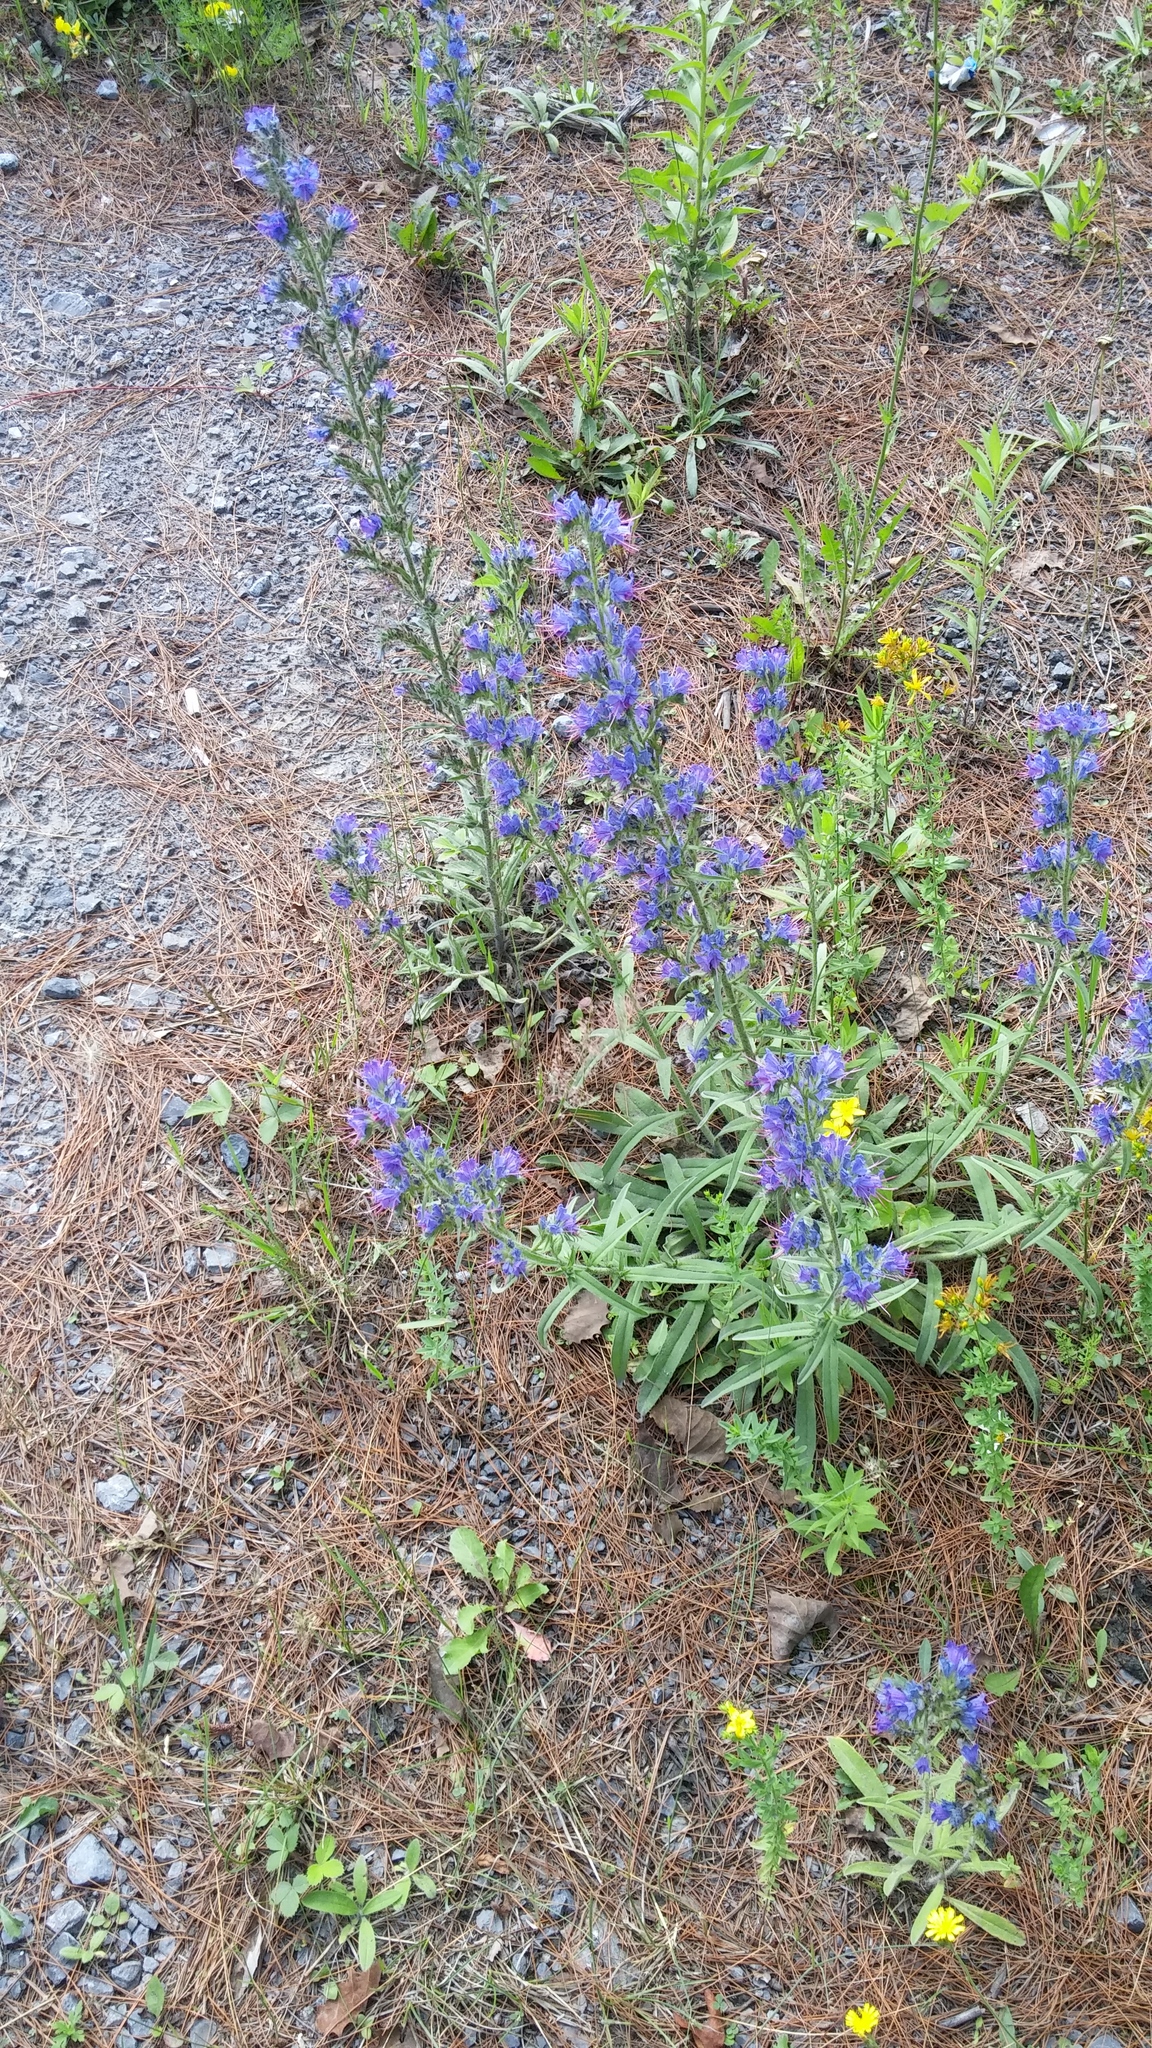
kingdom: Plantae
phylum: Tracheophyta
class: Magnoliopsida
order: Boraginales
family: Boraginaceae
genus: Echium
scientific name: Echium vulgare
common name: Common viper's bugloss
